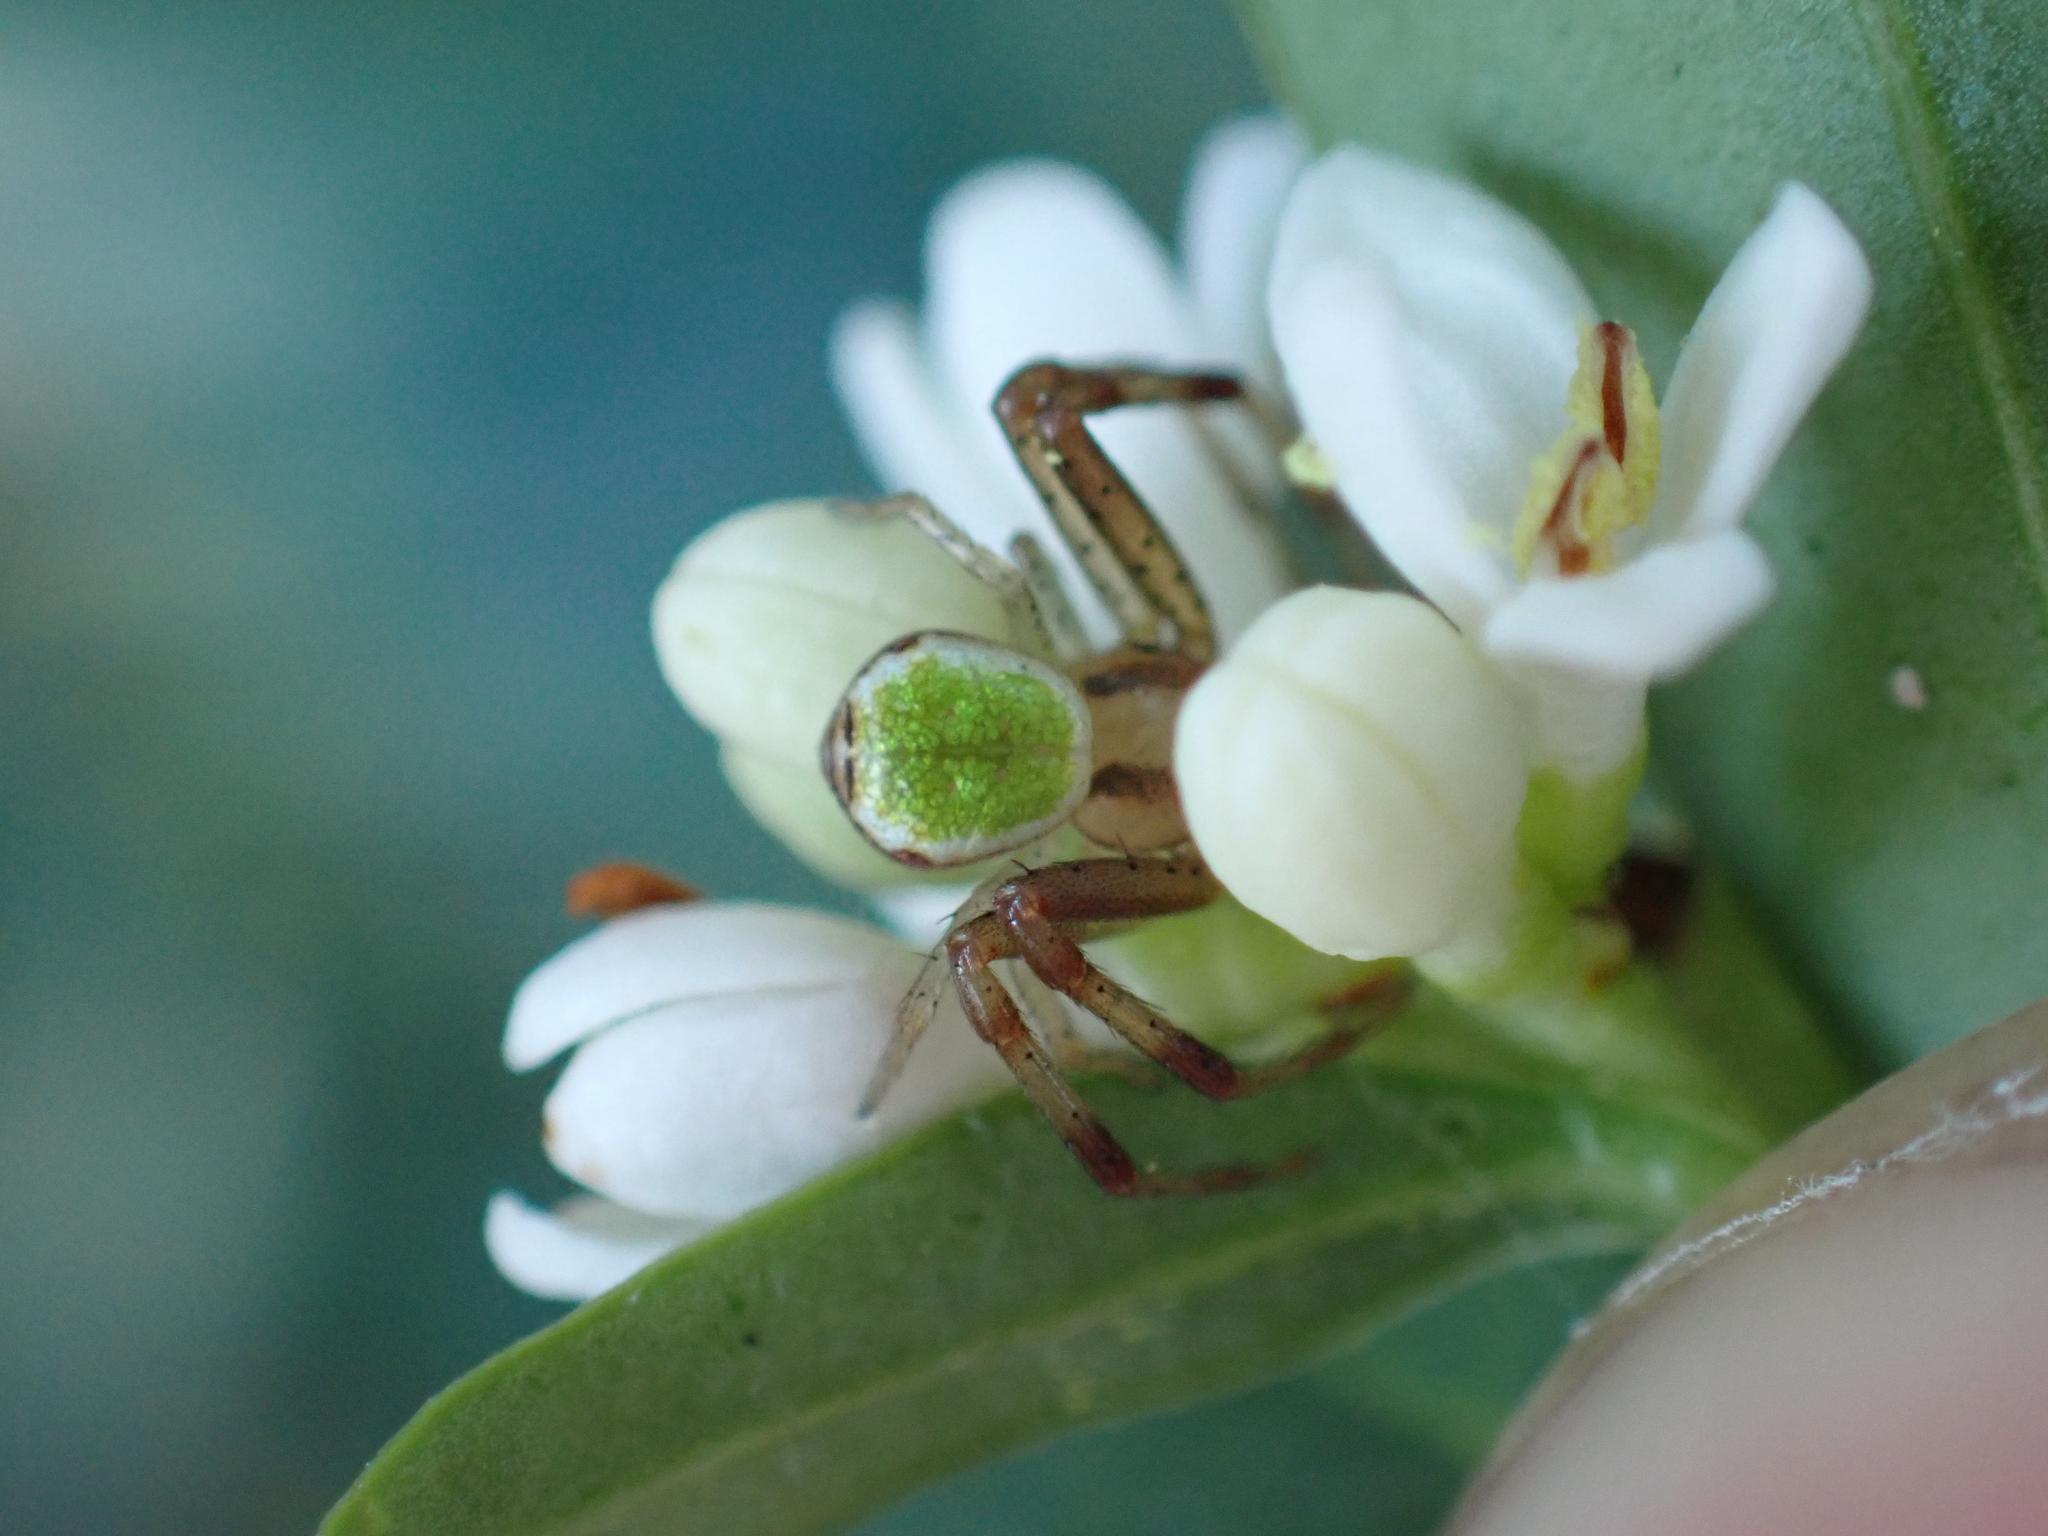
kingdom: Animalia
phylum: Arthropoda
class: Arachnida
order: Araneae
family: Thomisidae
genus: Ebrechtella
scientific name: Ebrechtella tricuspidata
